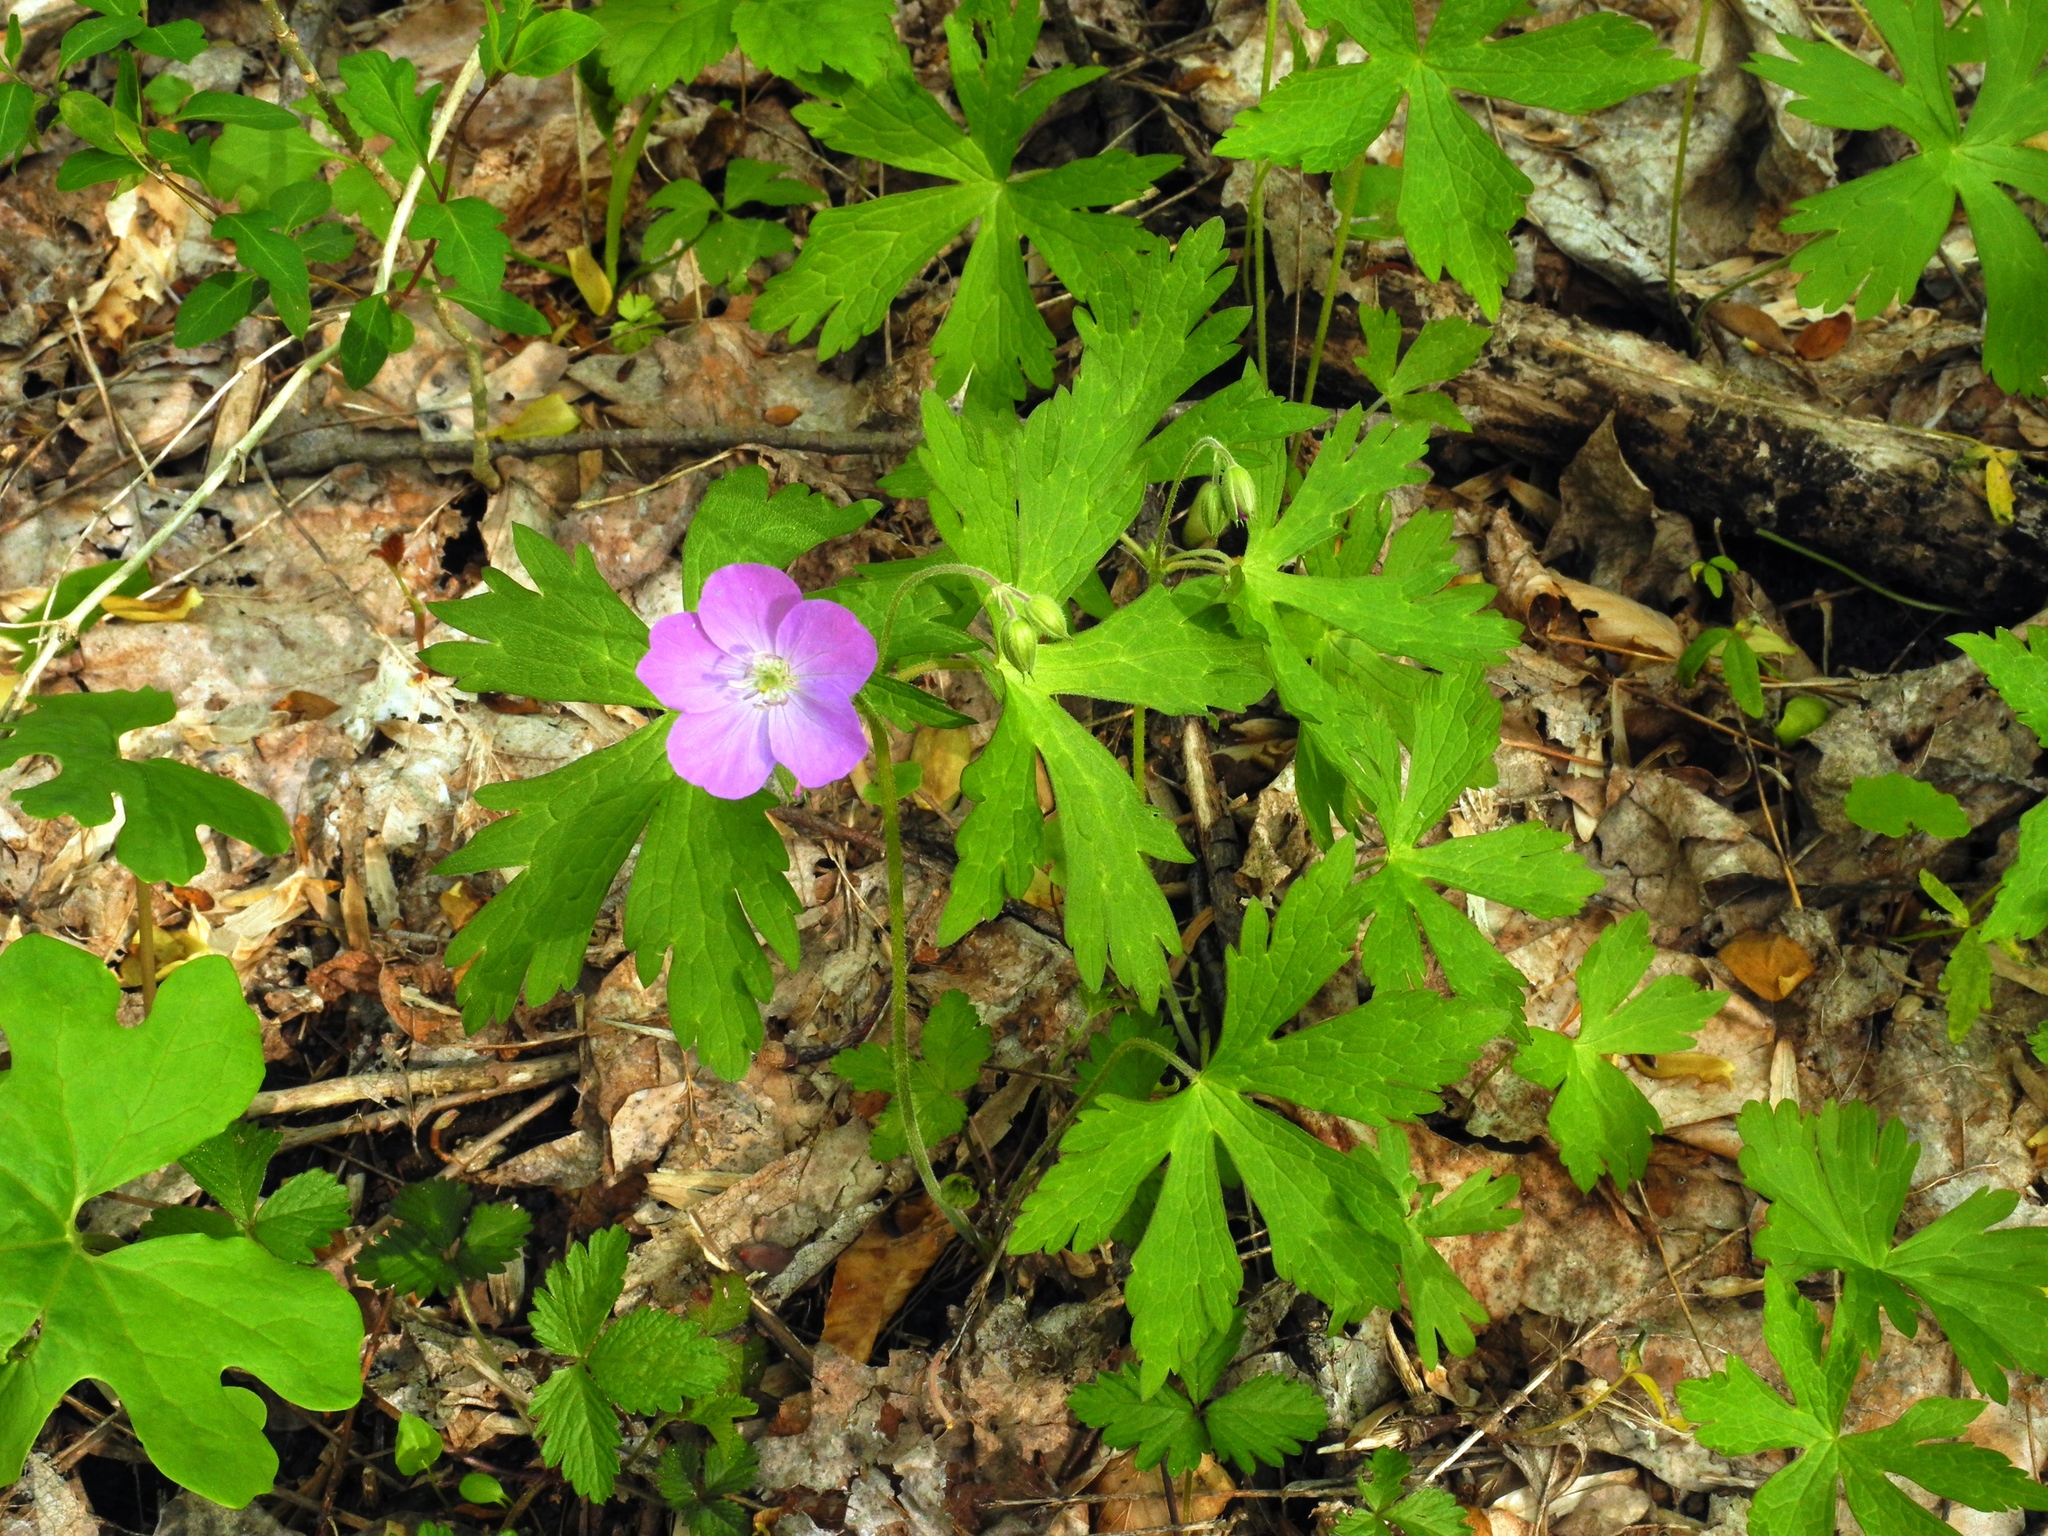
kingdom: Plantae
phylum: Tracheophyta
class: Magnoliopsida
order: Geraniales
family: Geraniaceae
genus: Geranium
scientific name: Geranium maculatum
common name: Spotted geranium
